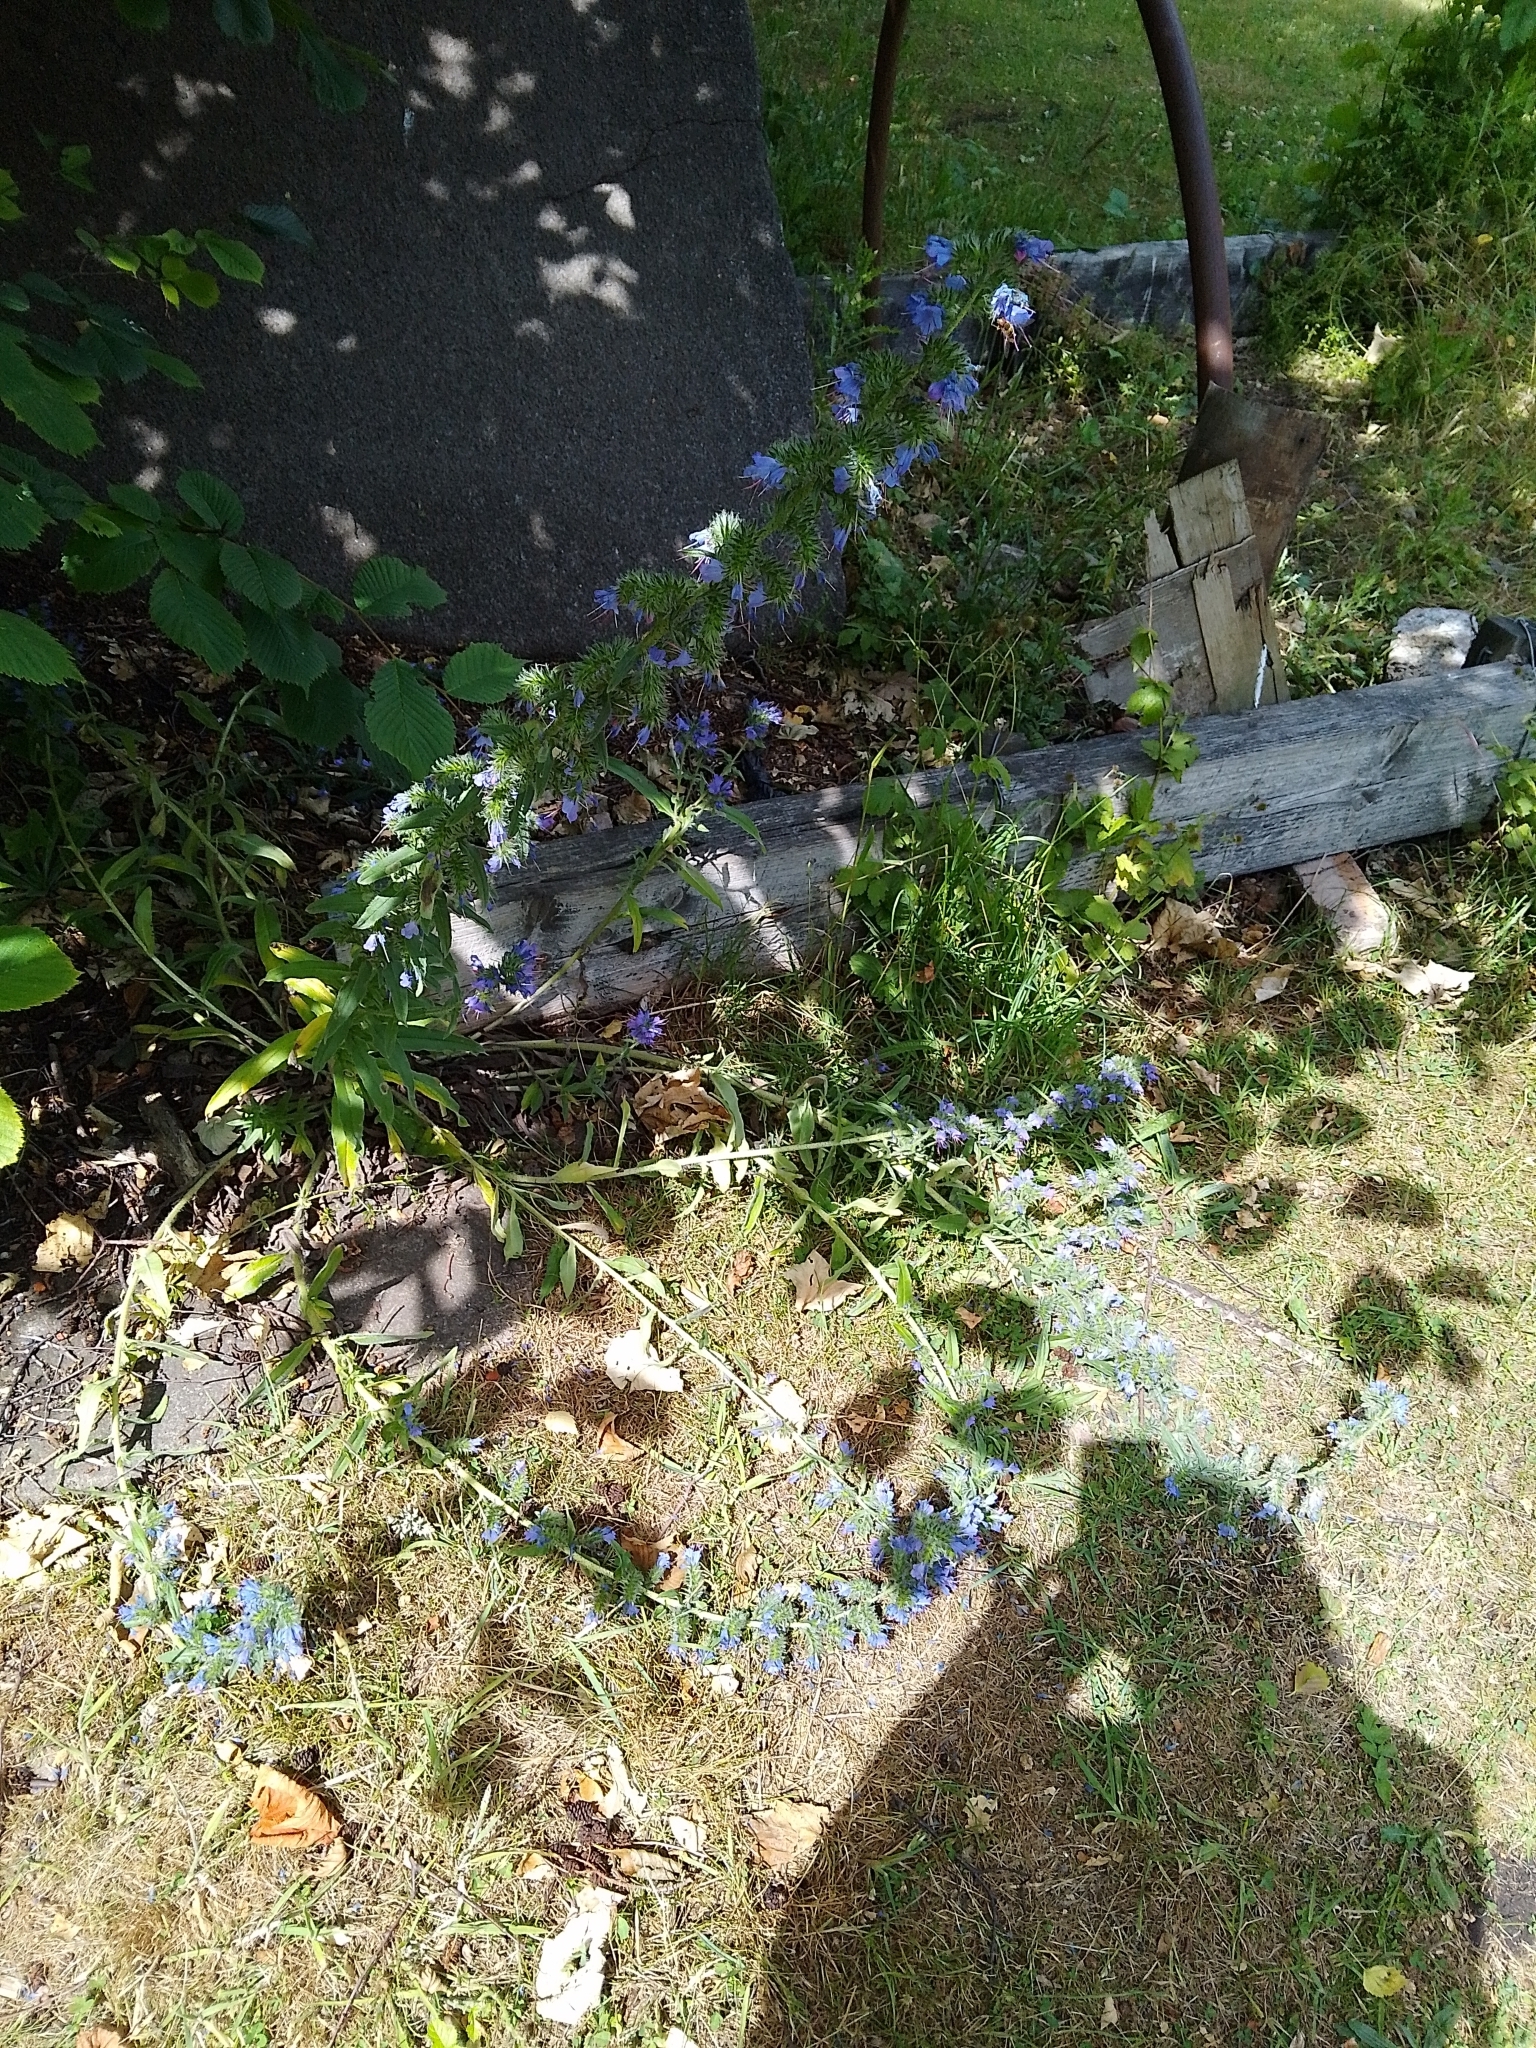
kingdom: Plantae
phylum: Tracheophyta
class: Magnoliopsida
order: Boraginales
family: Boraginaceae
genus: Echium
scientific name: Echium vulgare
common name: Common viper's bugloss
